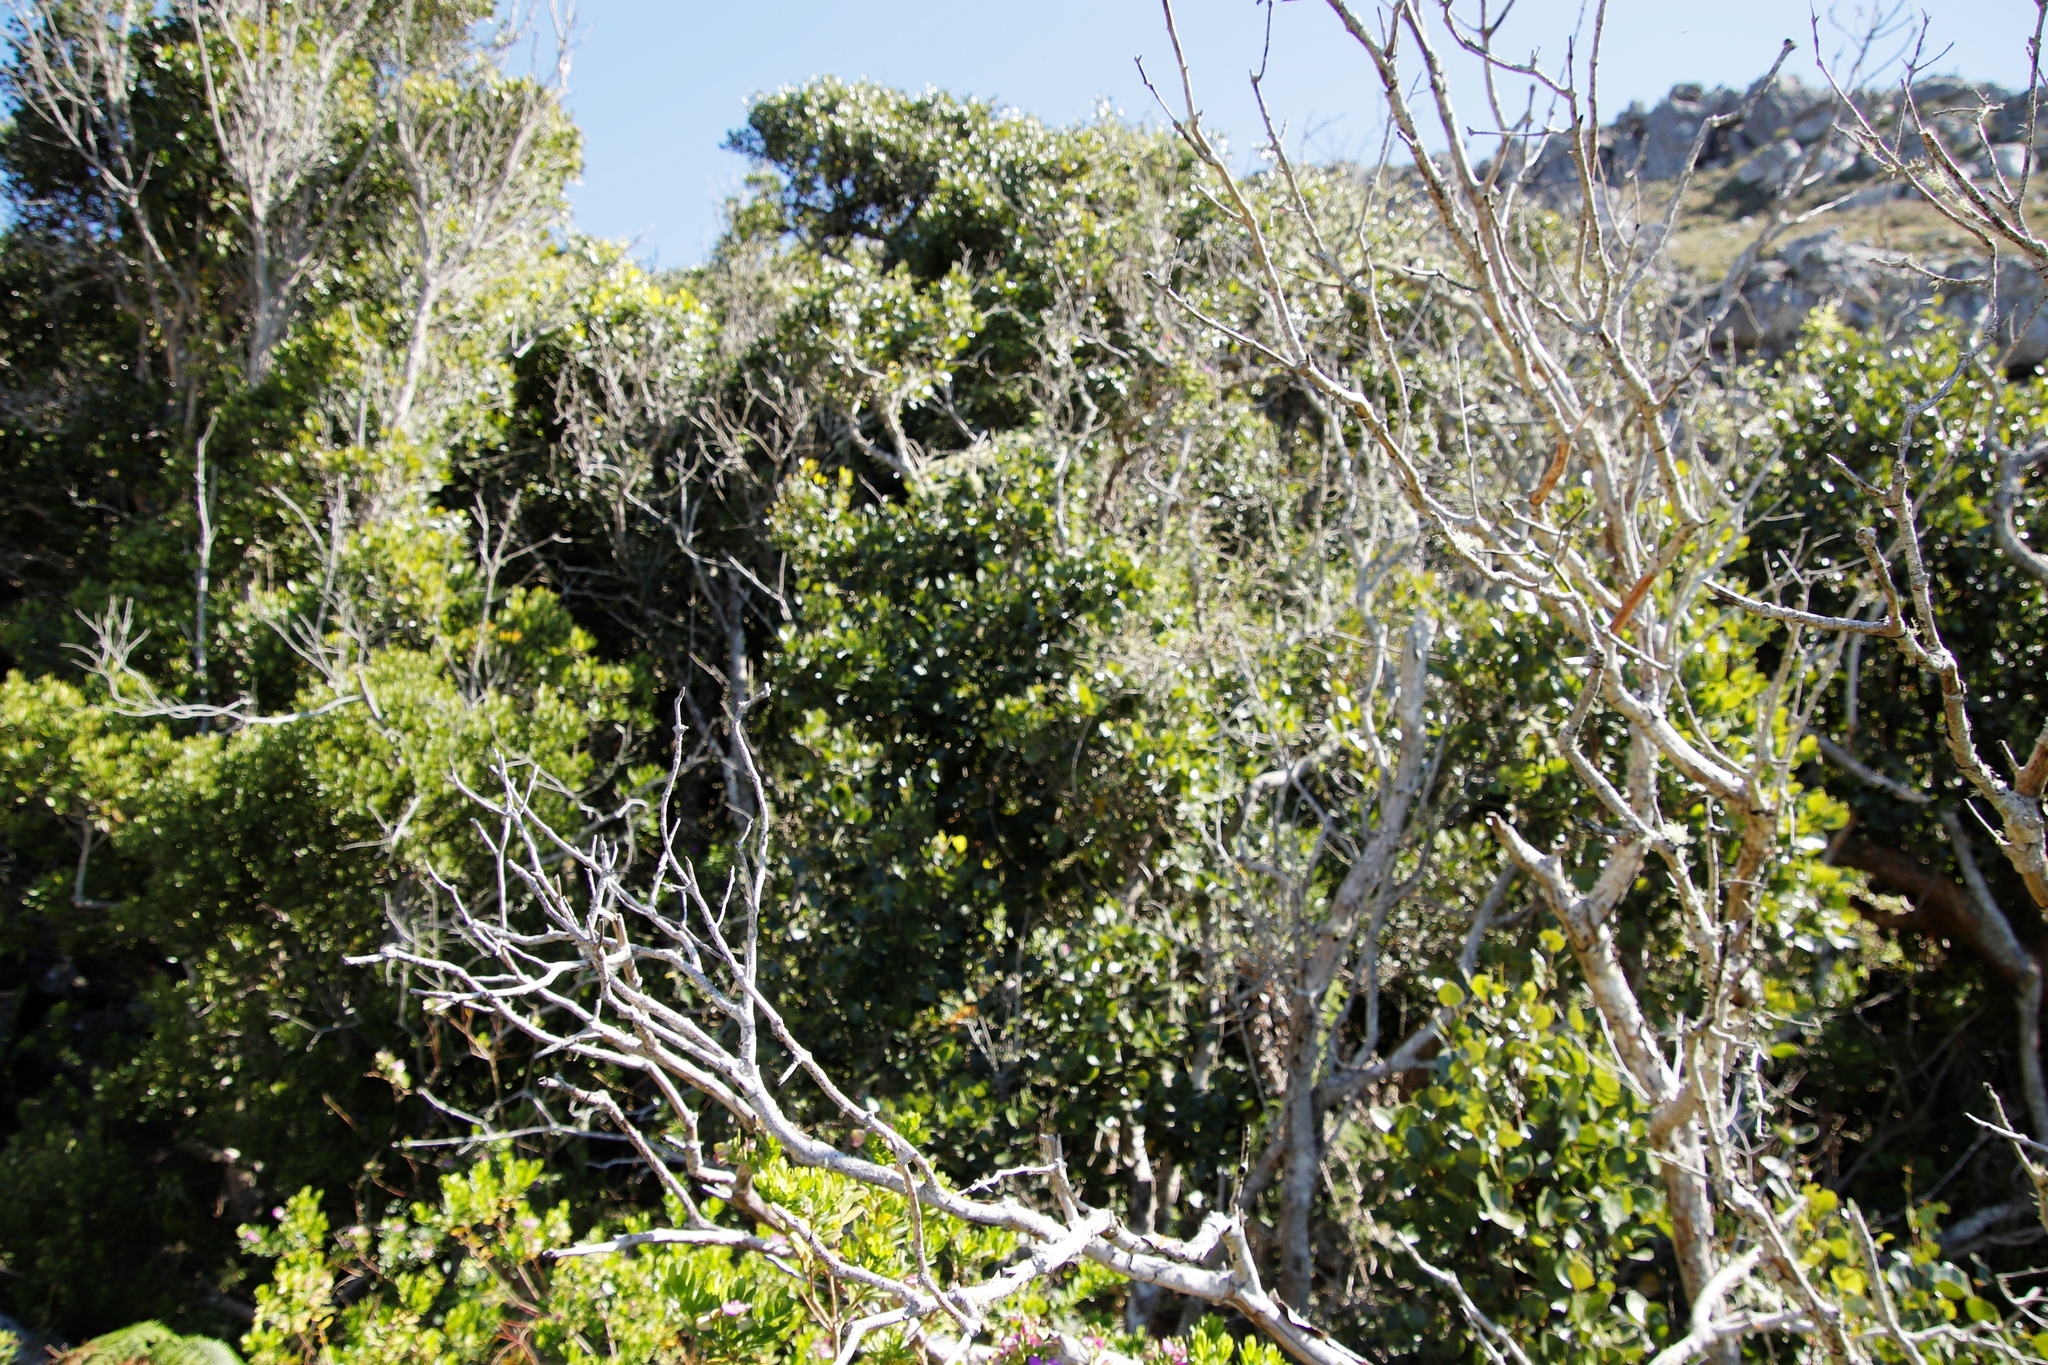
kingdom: Plantae
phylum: Tracheophyta
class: Magnoliopsida
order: Celastrales
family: Celastraceae
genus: Cassine
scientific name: Cassine peragua
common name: Cape saffron
